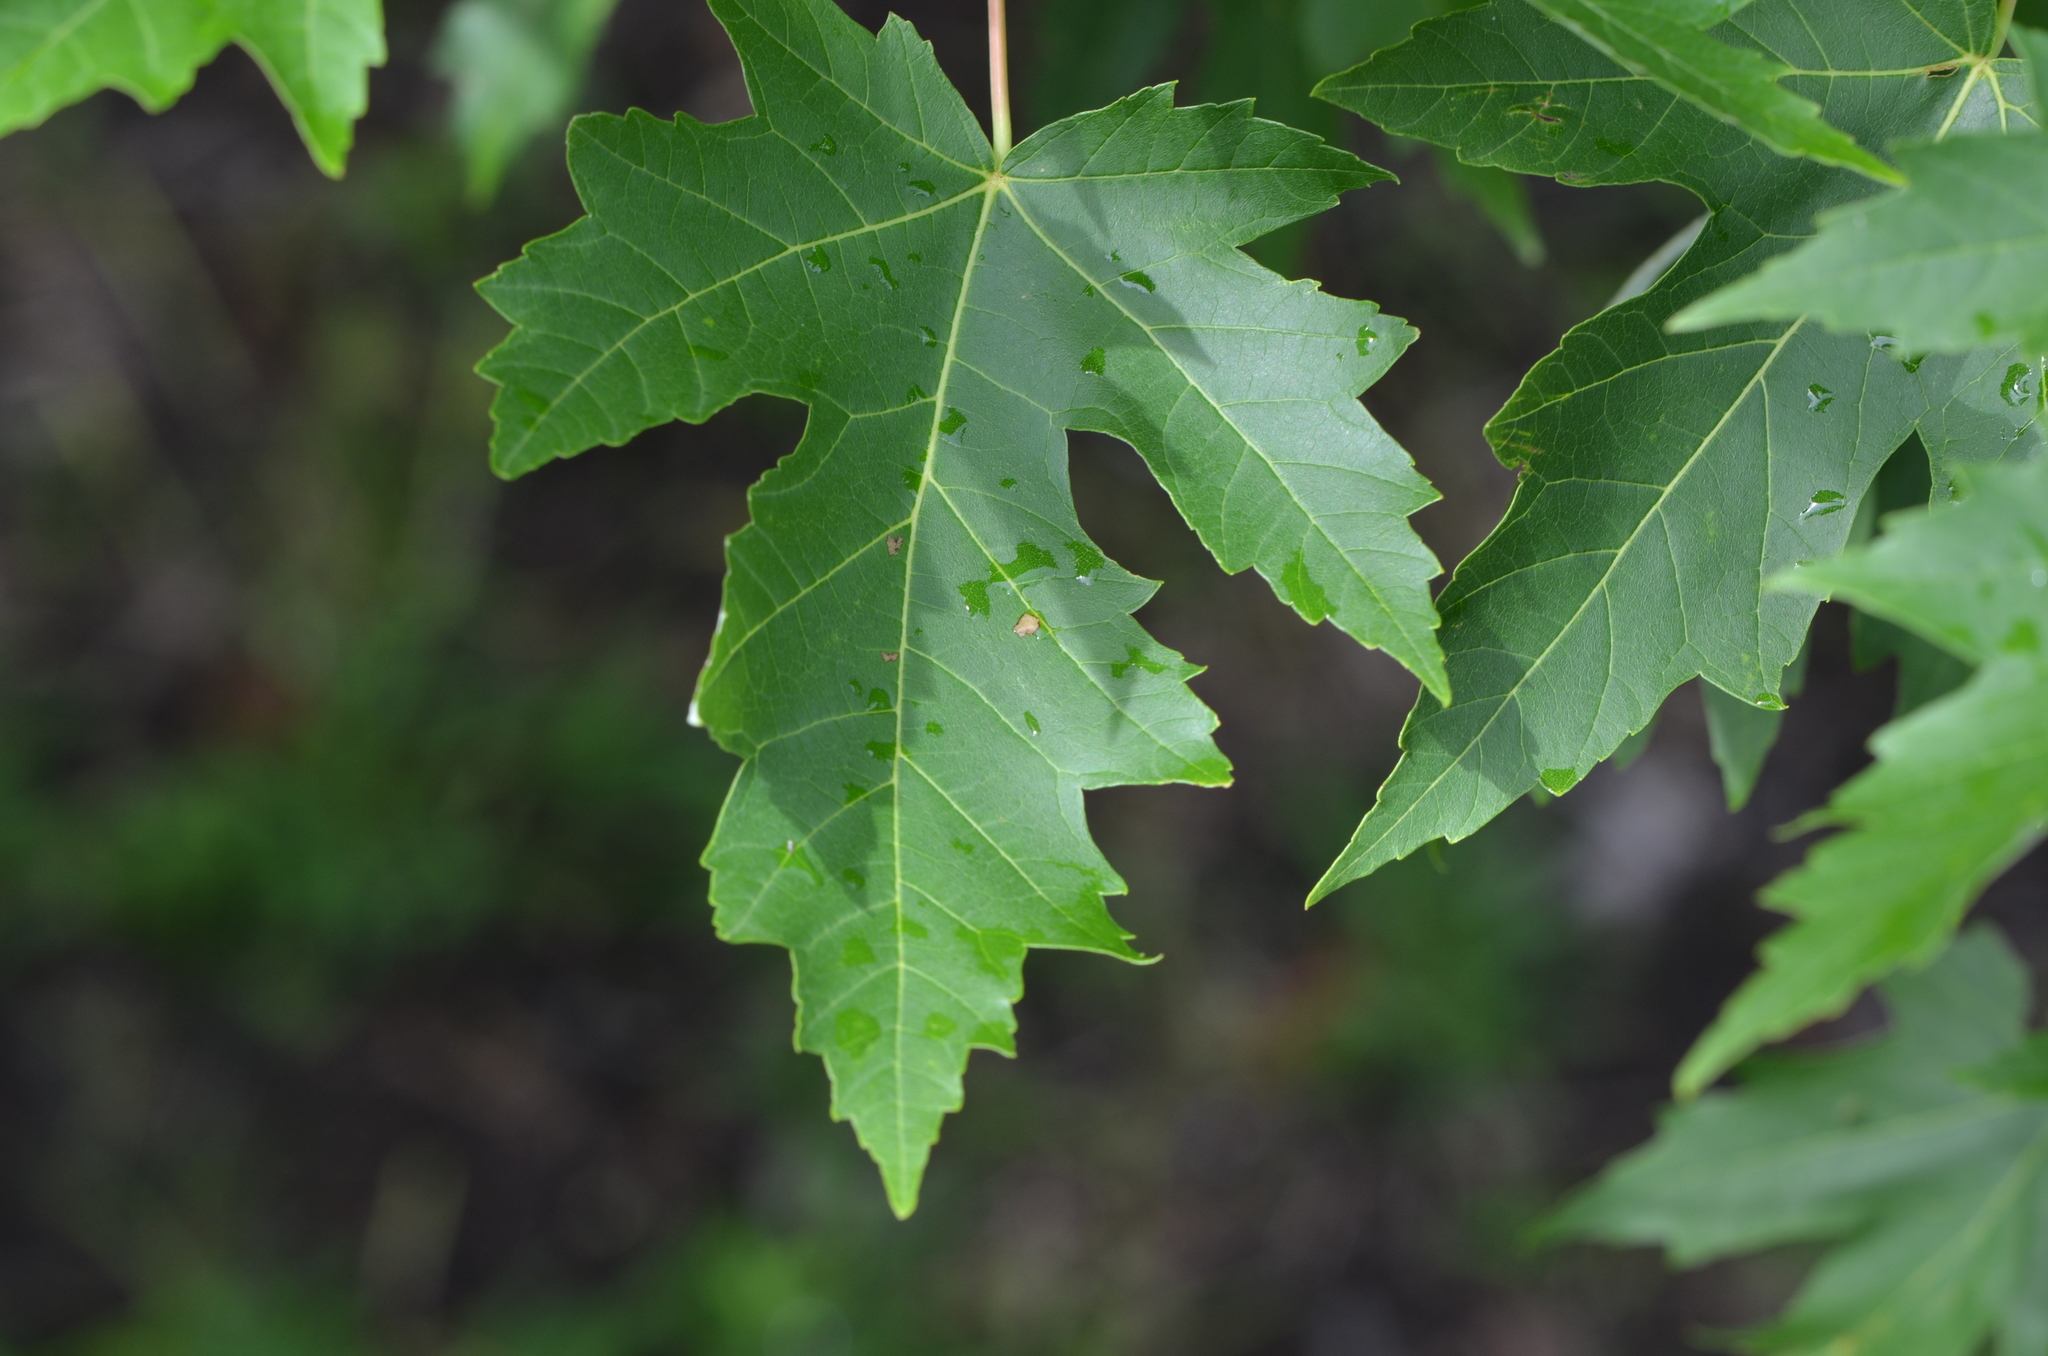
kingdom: Plantae
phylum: Tracheophyta
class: Magnoliopsida
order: Sapindales
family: Sapindaceae
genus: Acer
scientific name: Acer saccharinum
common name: Silver maple
